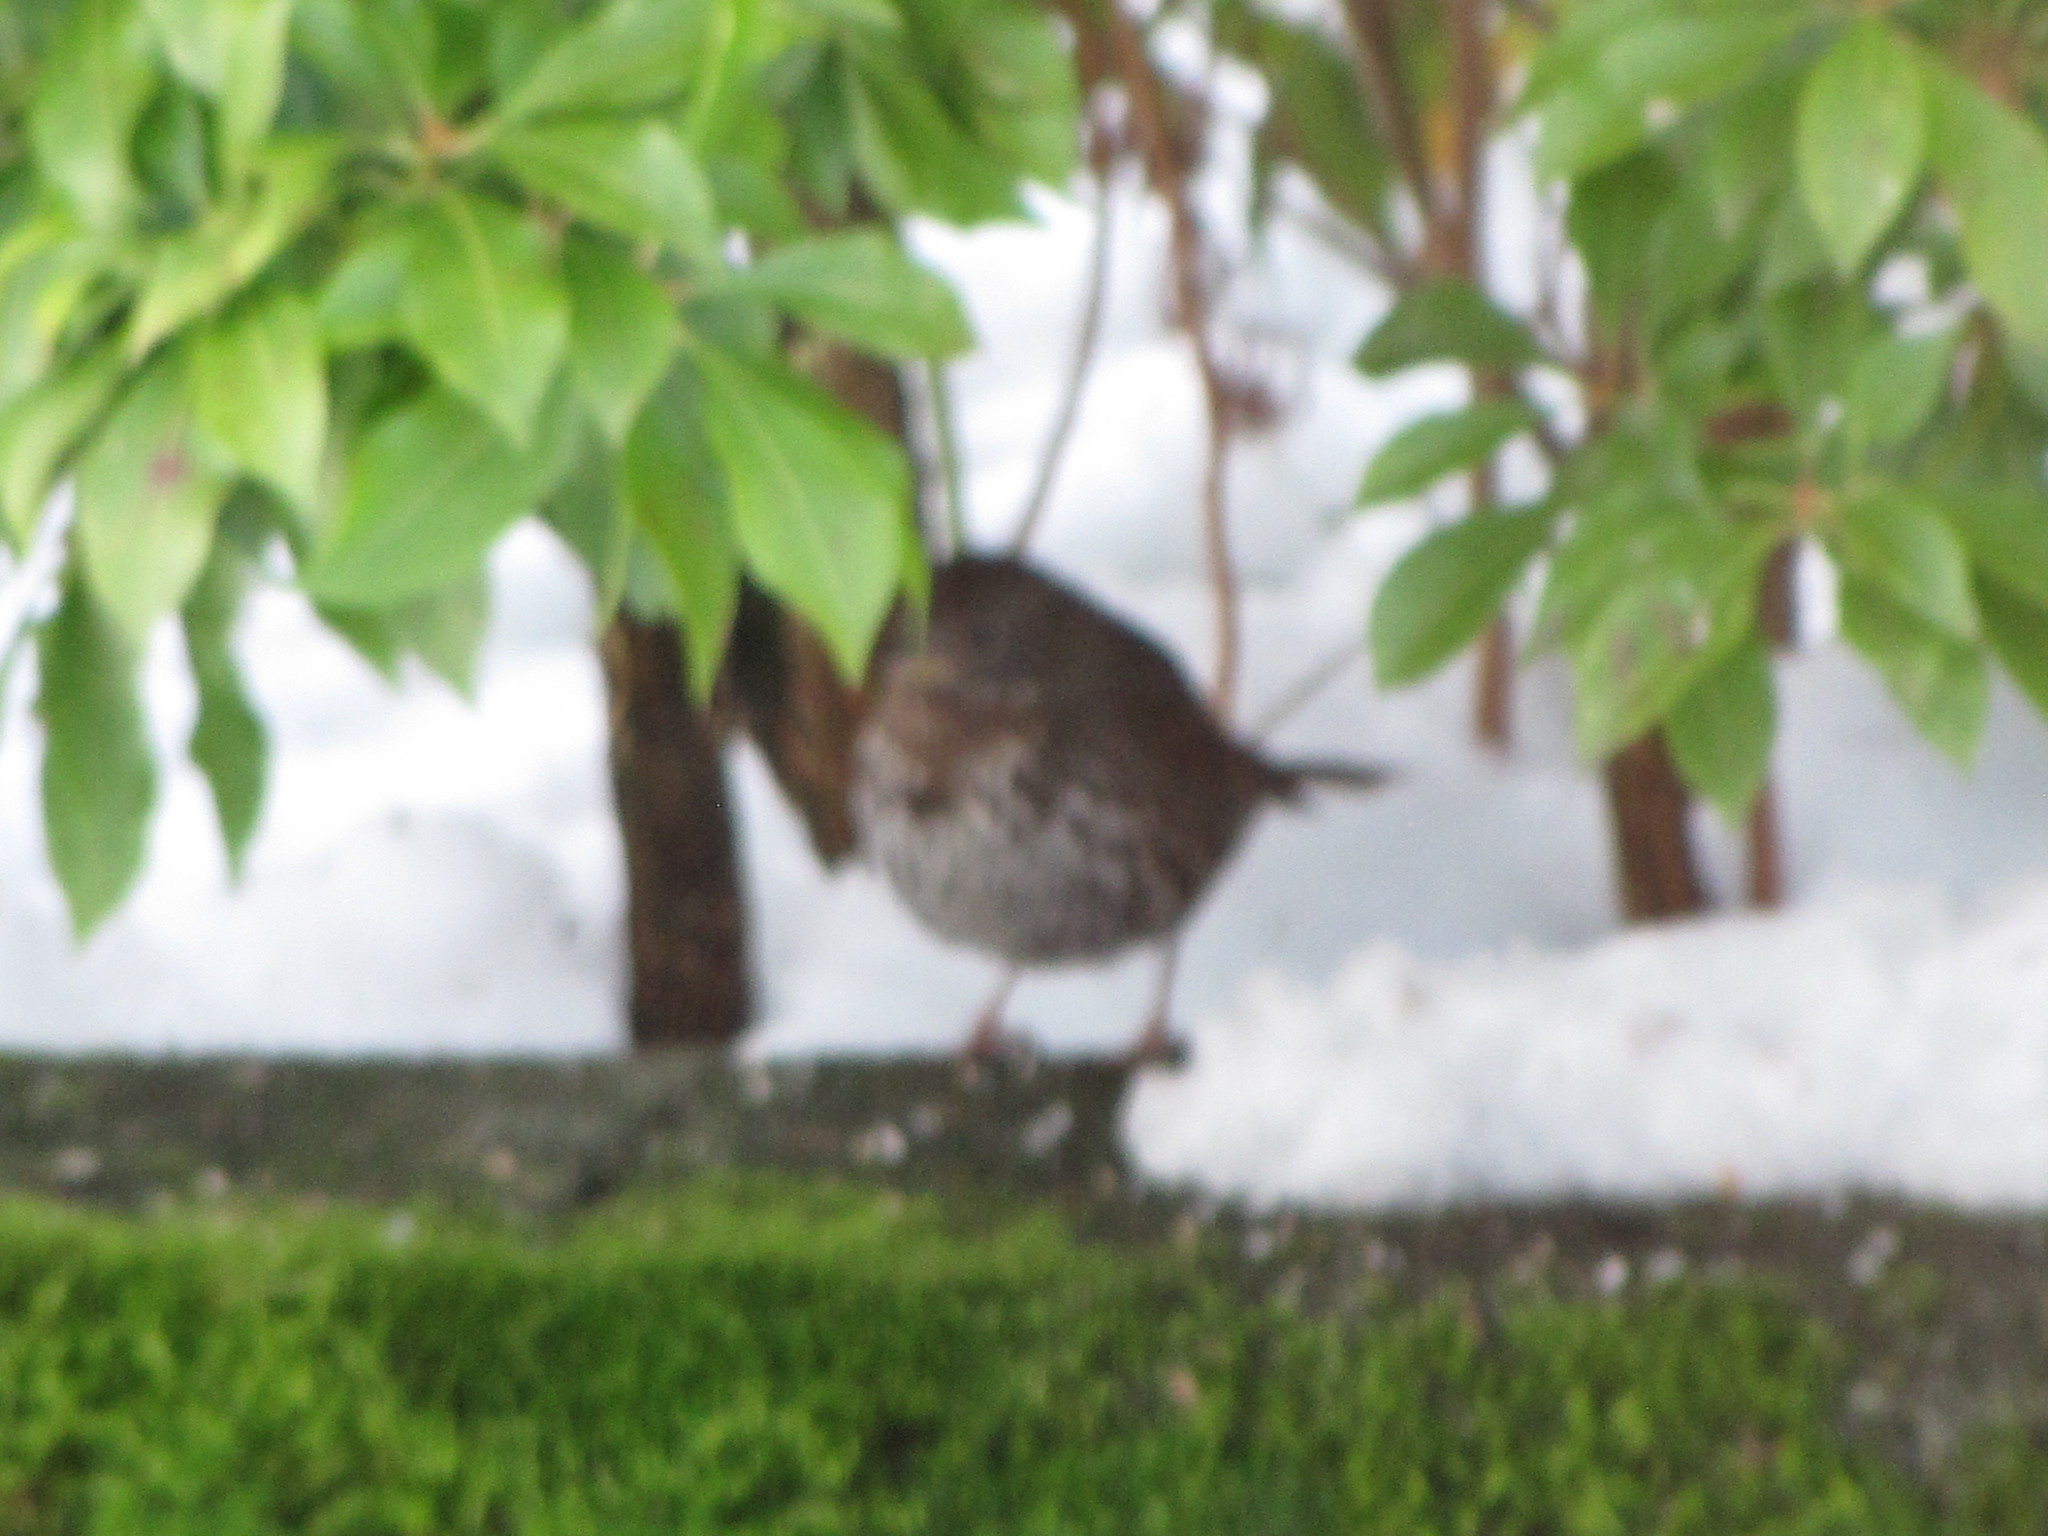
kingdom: Animalia
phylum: Chordata
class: Aves
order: Passeriformes
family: Passerellidae
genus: Passerella
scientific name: Passerella iliaca
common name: Fox sparrow
